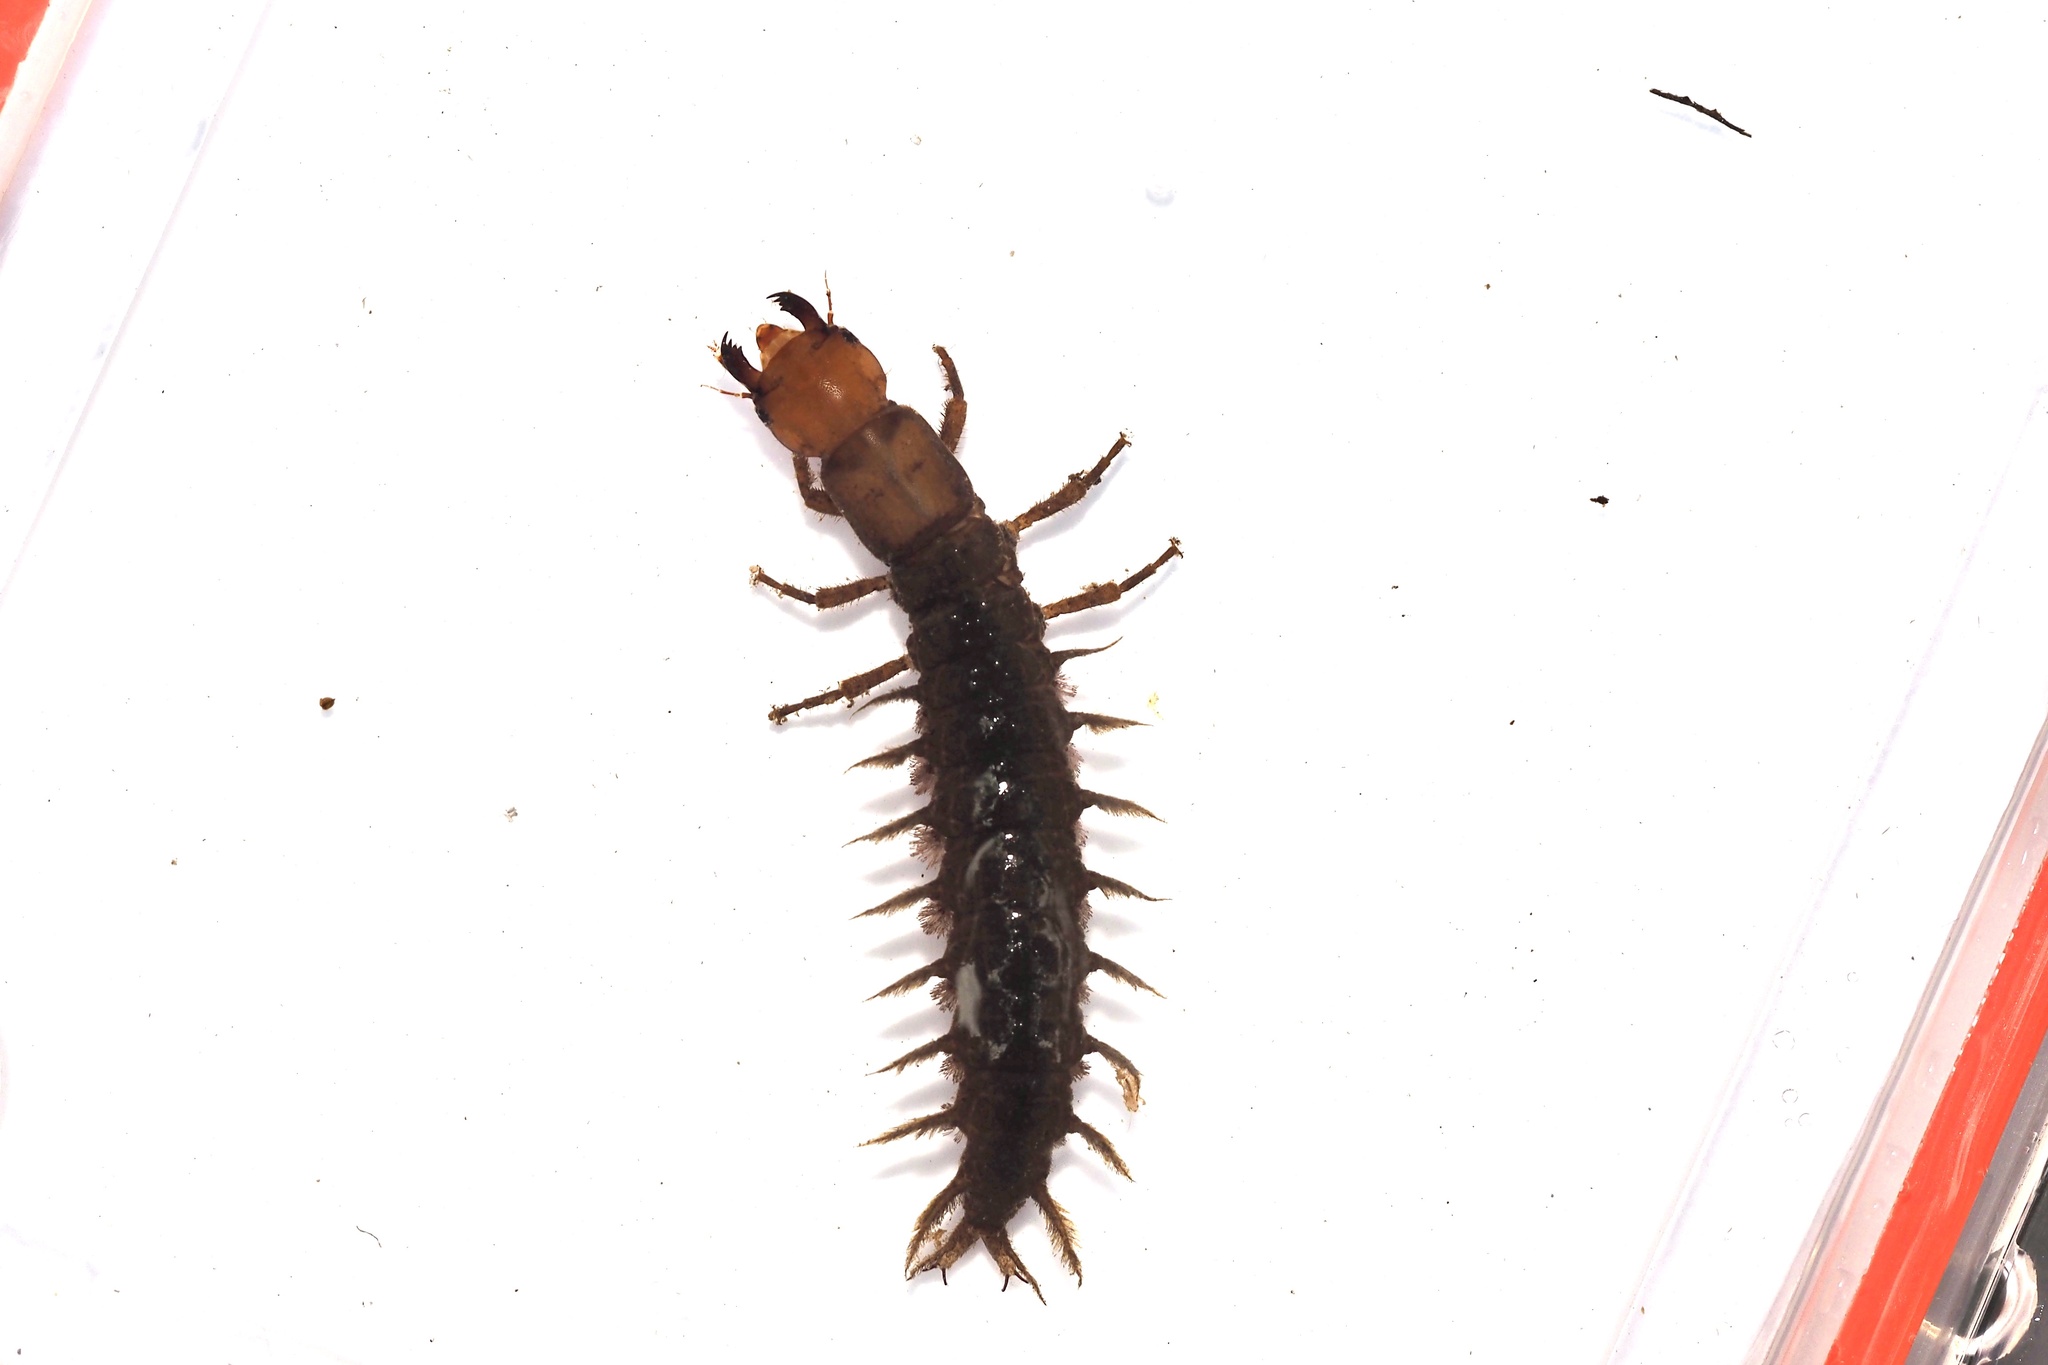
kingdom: Animalia
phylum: Arthropoda
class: Insecta
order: Megaloptera
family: Corydalidae
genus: Protohermes
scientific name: Protohermes grandis
